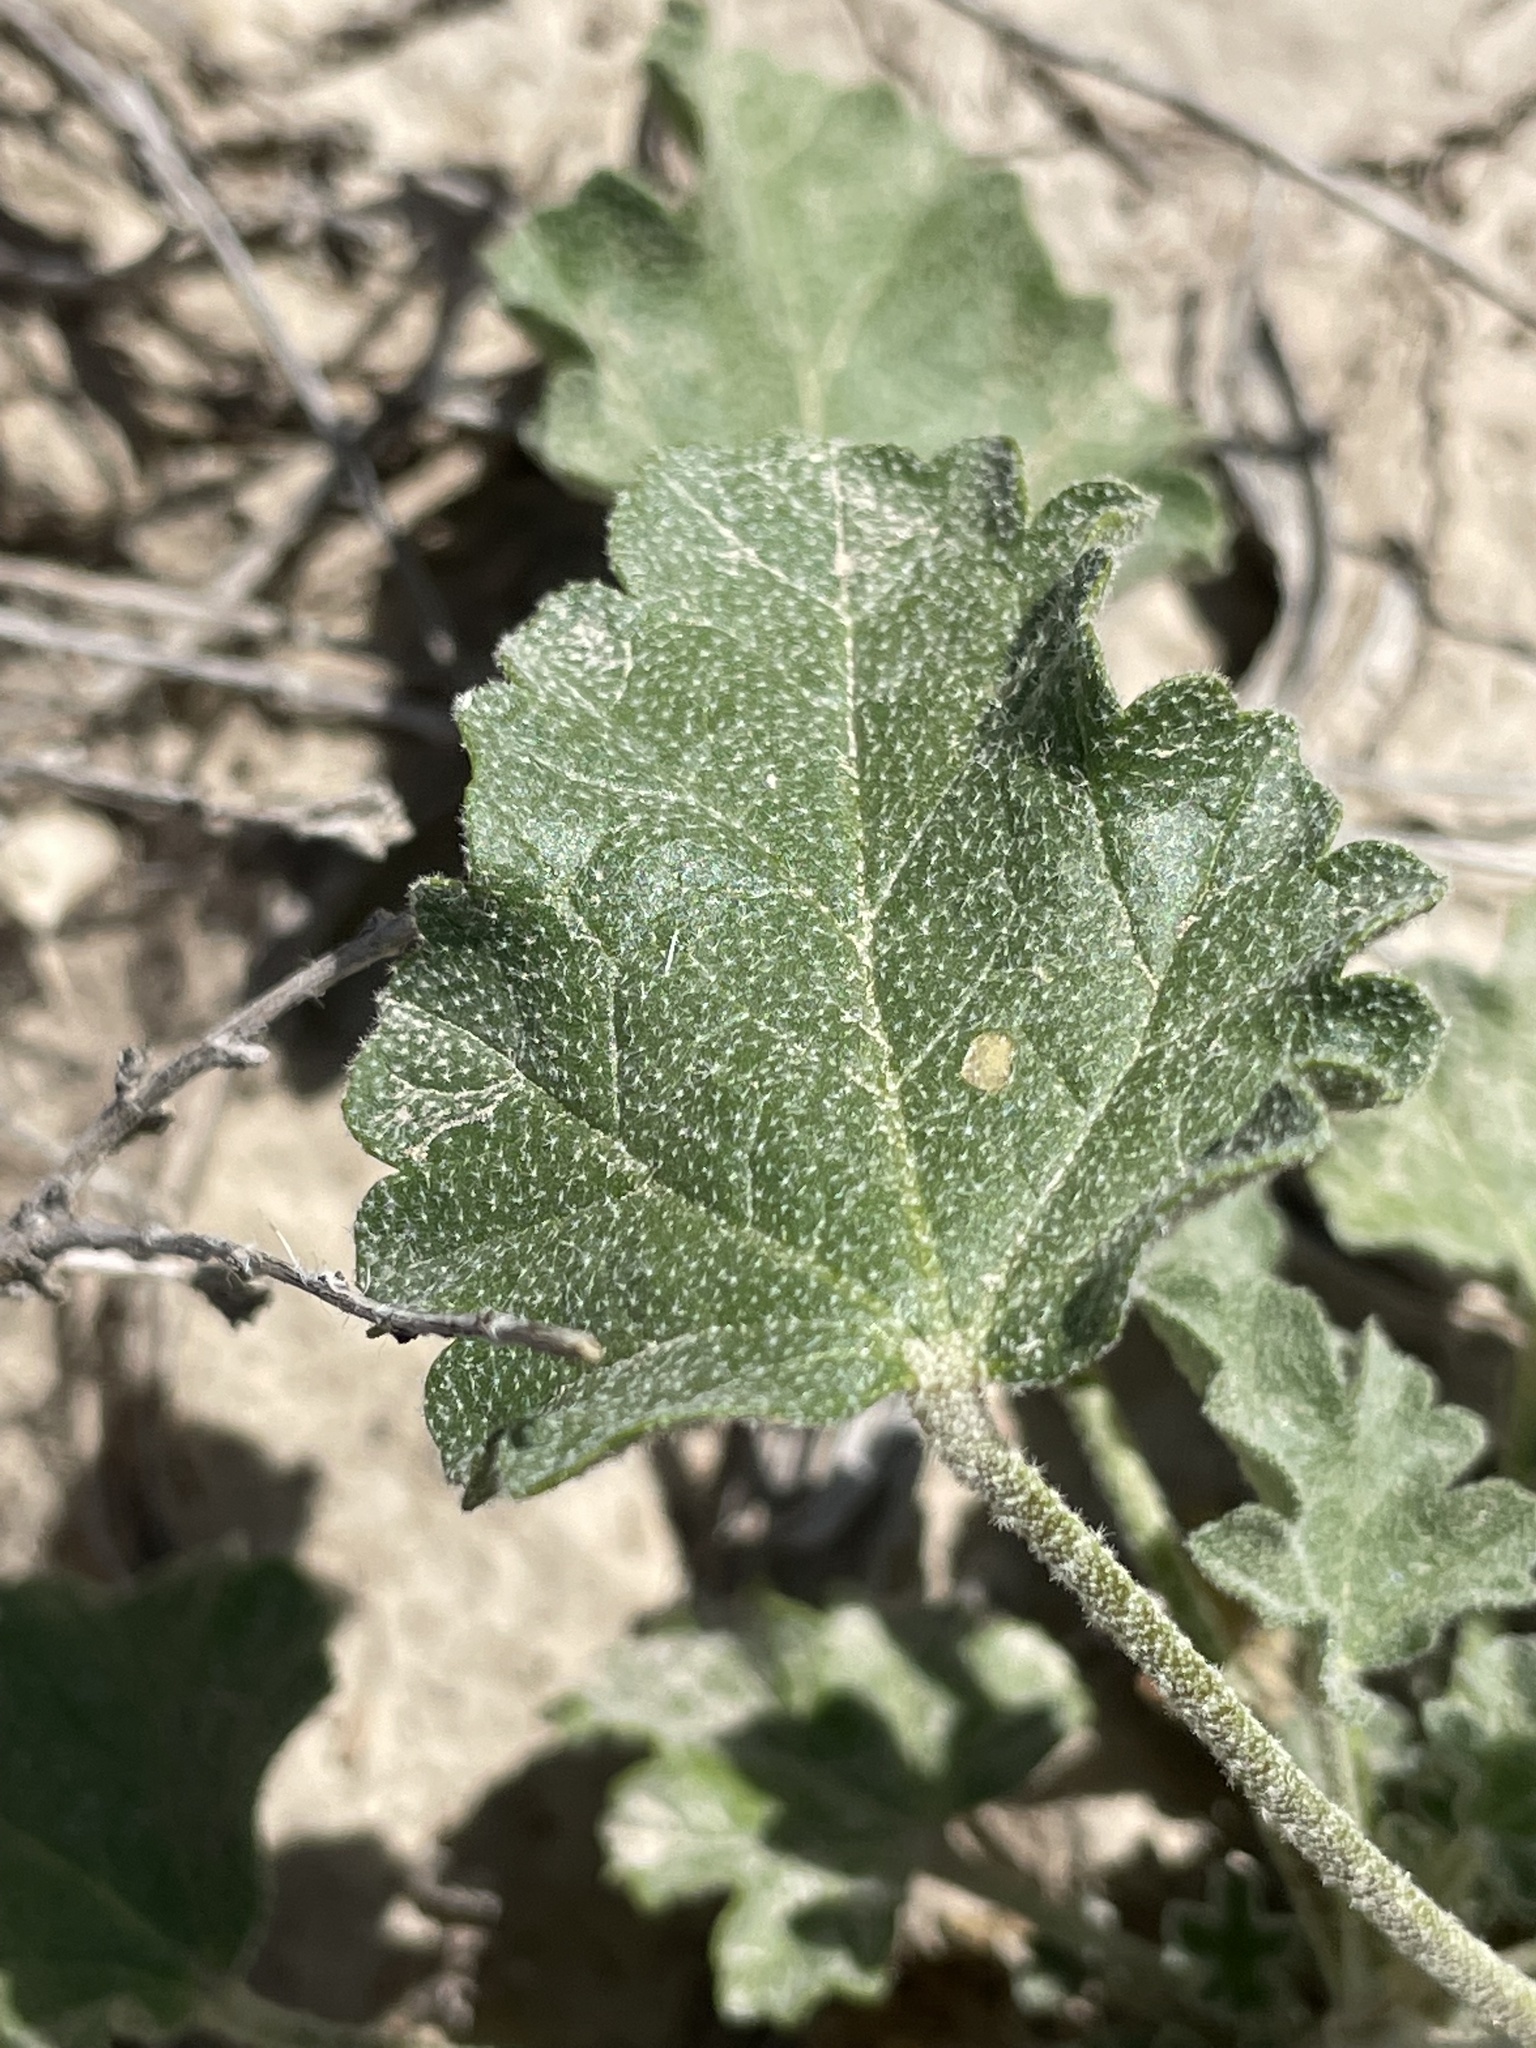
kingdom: Plantae
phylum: Tracheophyta
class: Magnoliopsida
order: Malvales
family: Malvaceae
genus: Sphaeralcea
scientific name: Sphaeralcea ambigua
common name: Apricot globe-mallow
